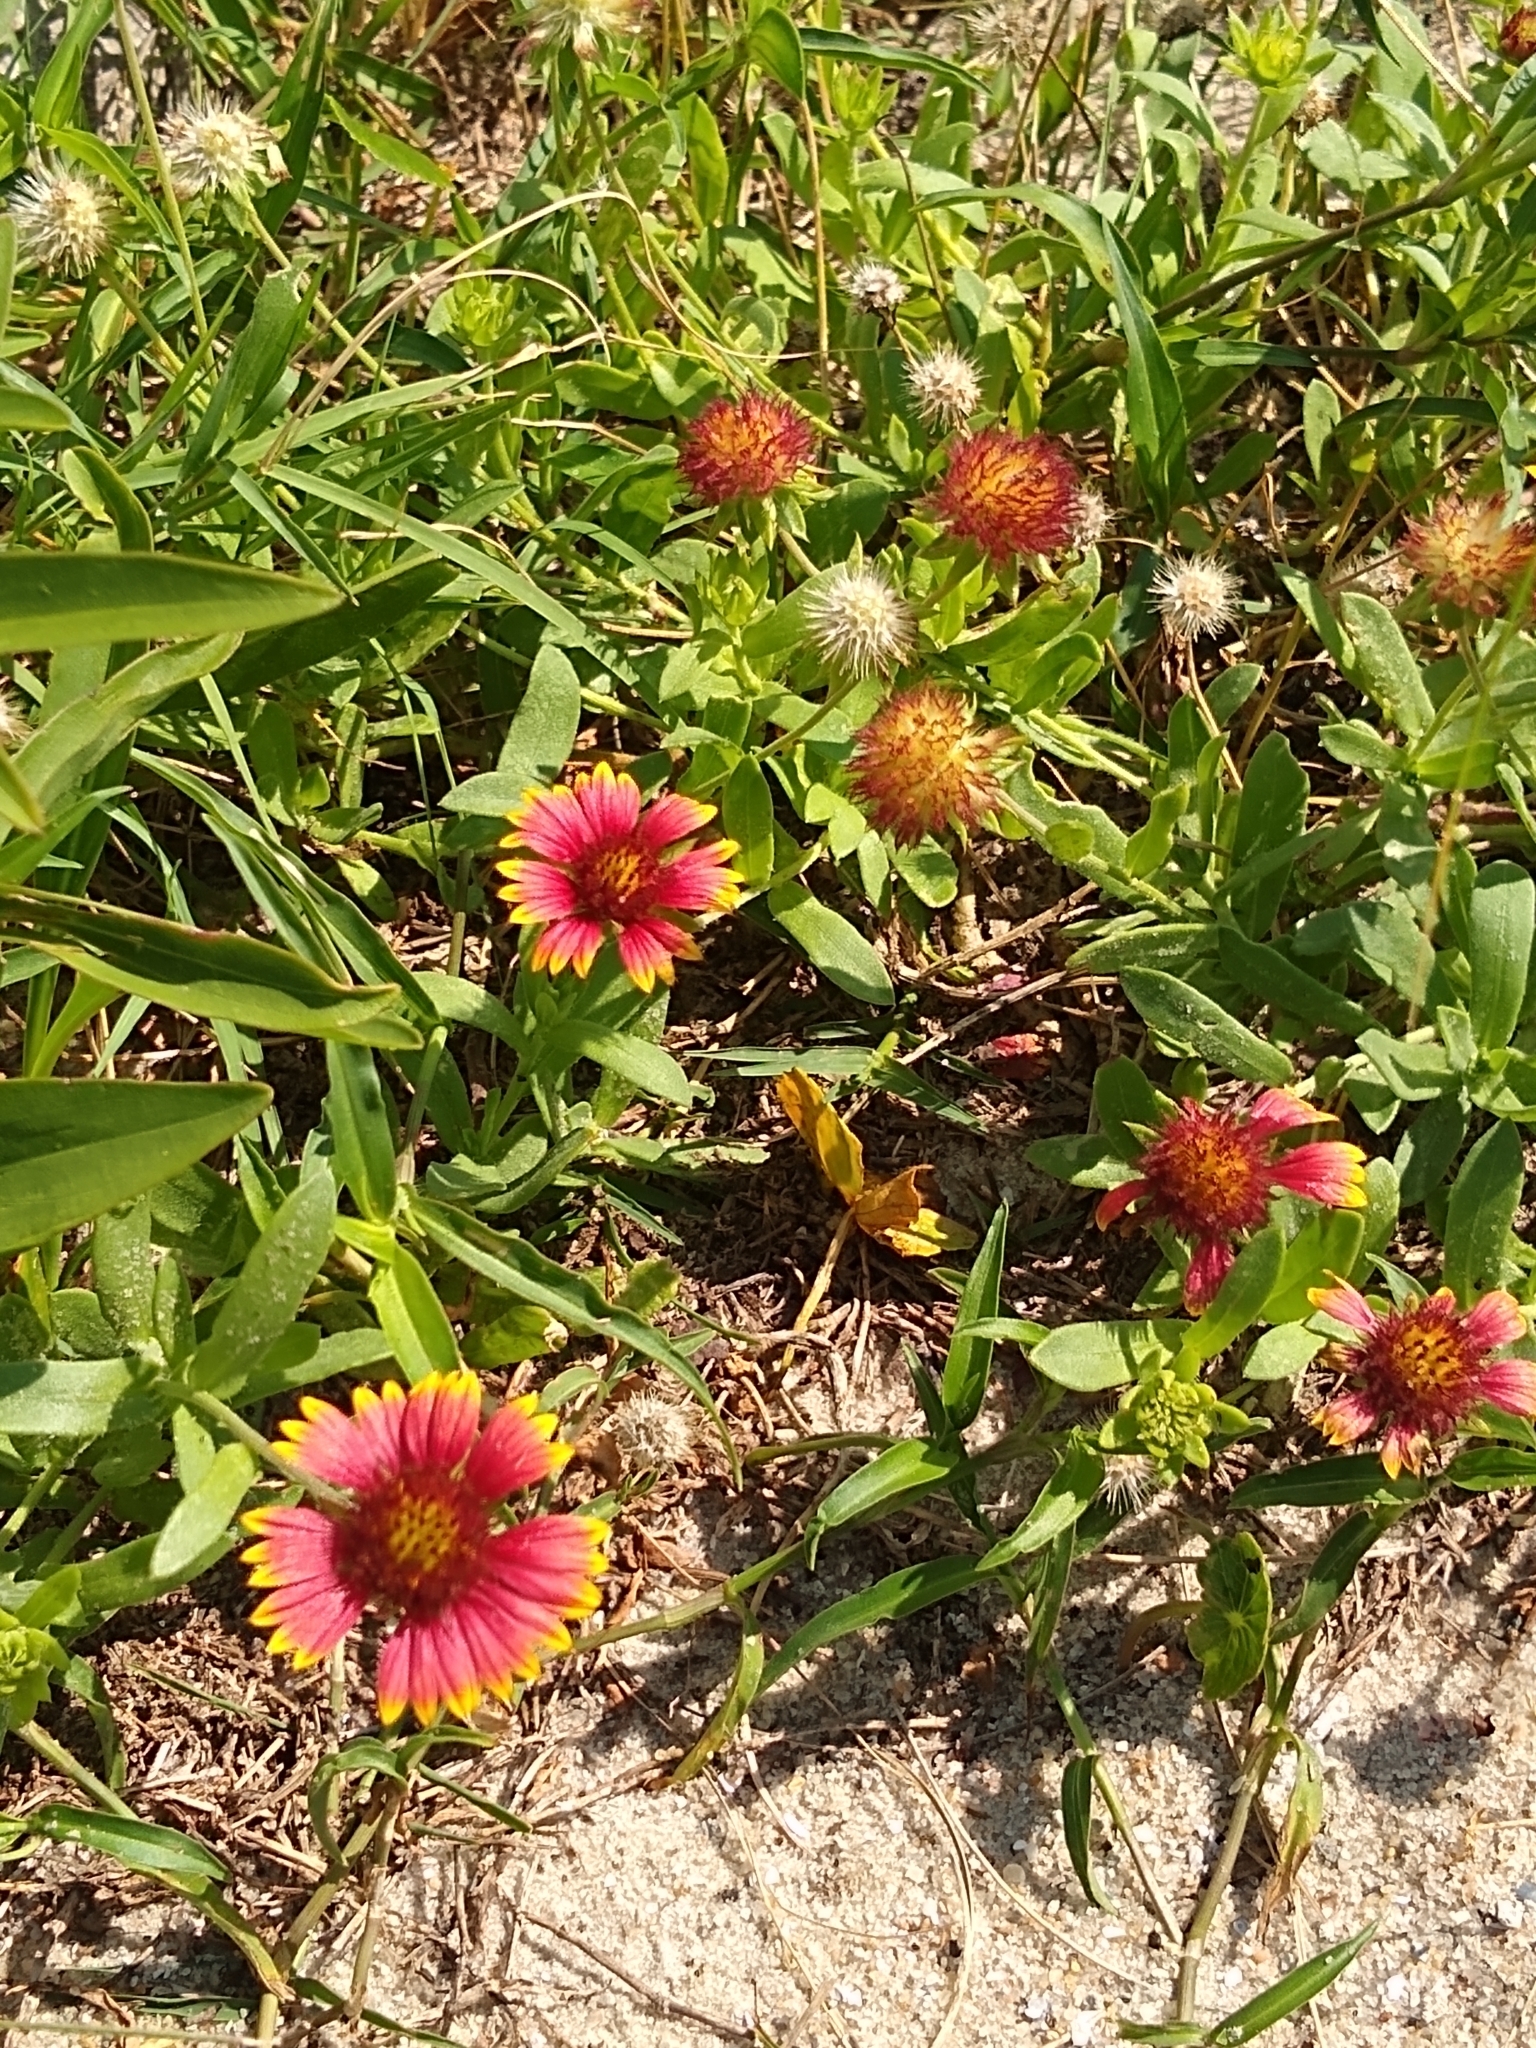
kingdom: Plantae
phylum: Tracheophyta
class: Magnoliopsida
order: Asterales
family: Asteraceae
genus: Gaillardia
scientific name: Gaillardia pulchella
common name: Firewheel
